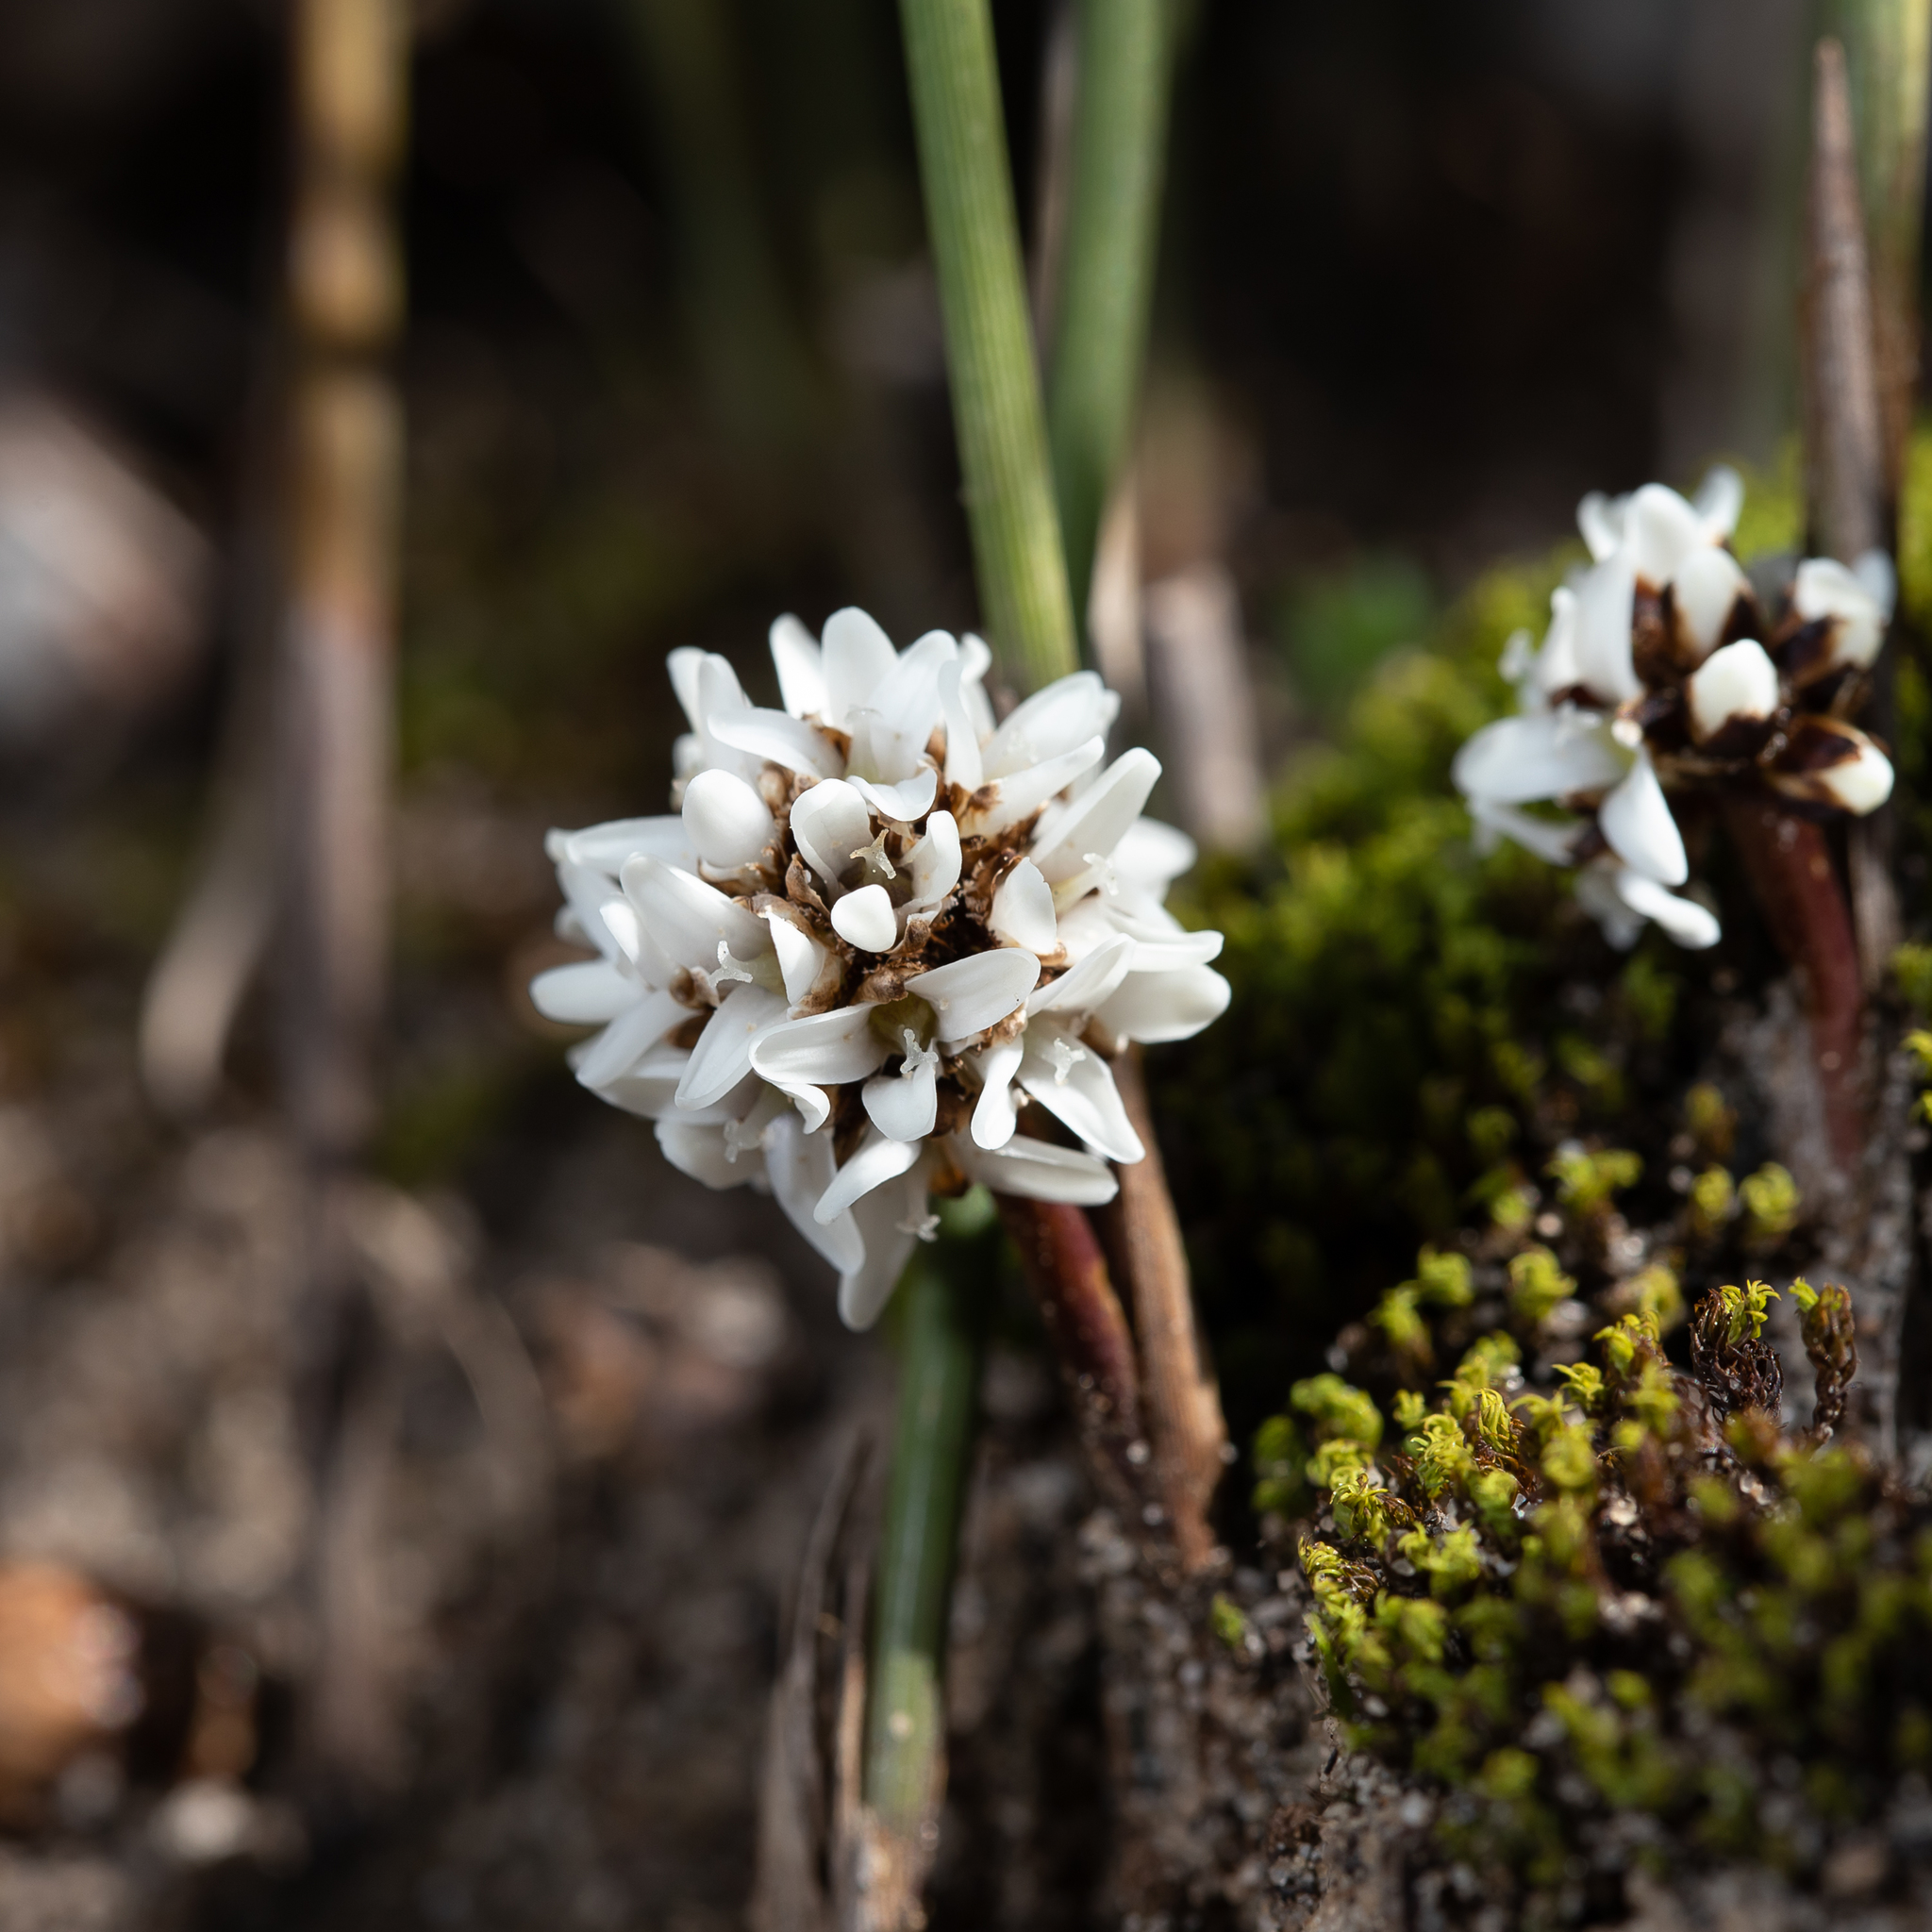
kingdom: Plantae
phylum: Tracheophyta
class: Liliopsida
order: Asparagales
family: Asparagaceae
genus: Lomandra
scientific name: Lomandra juncea
